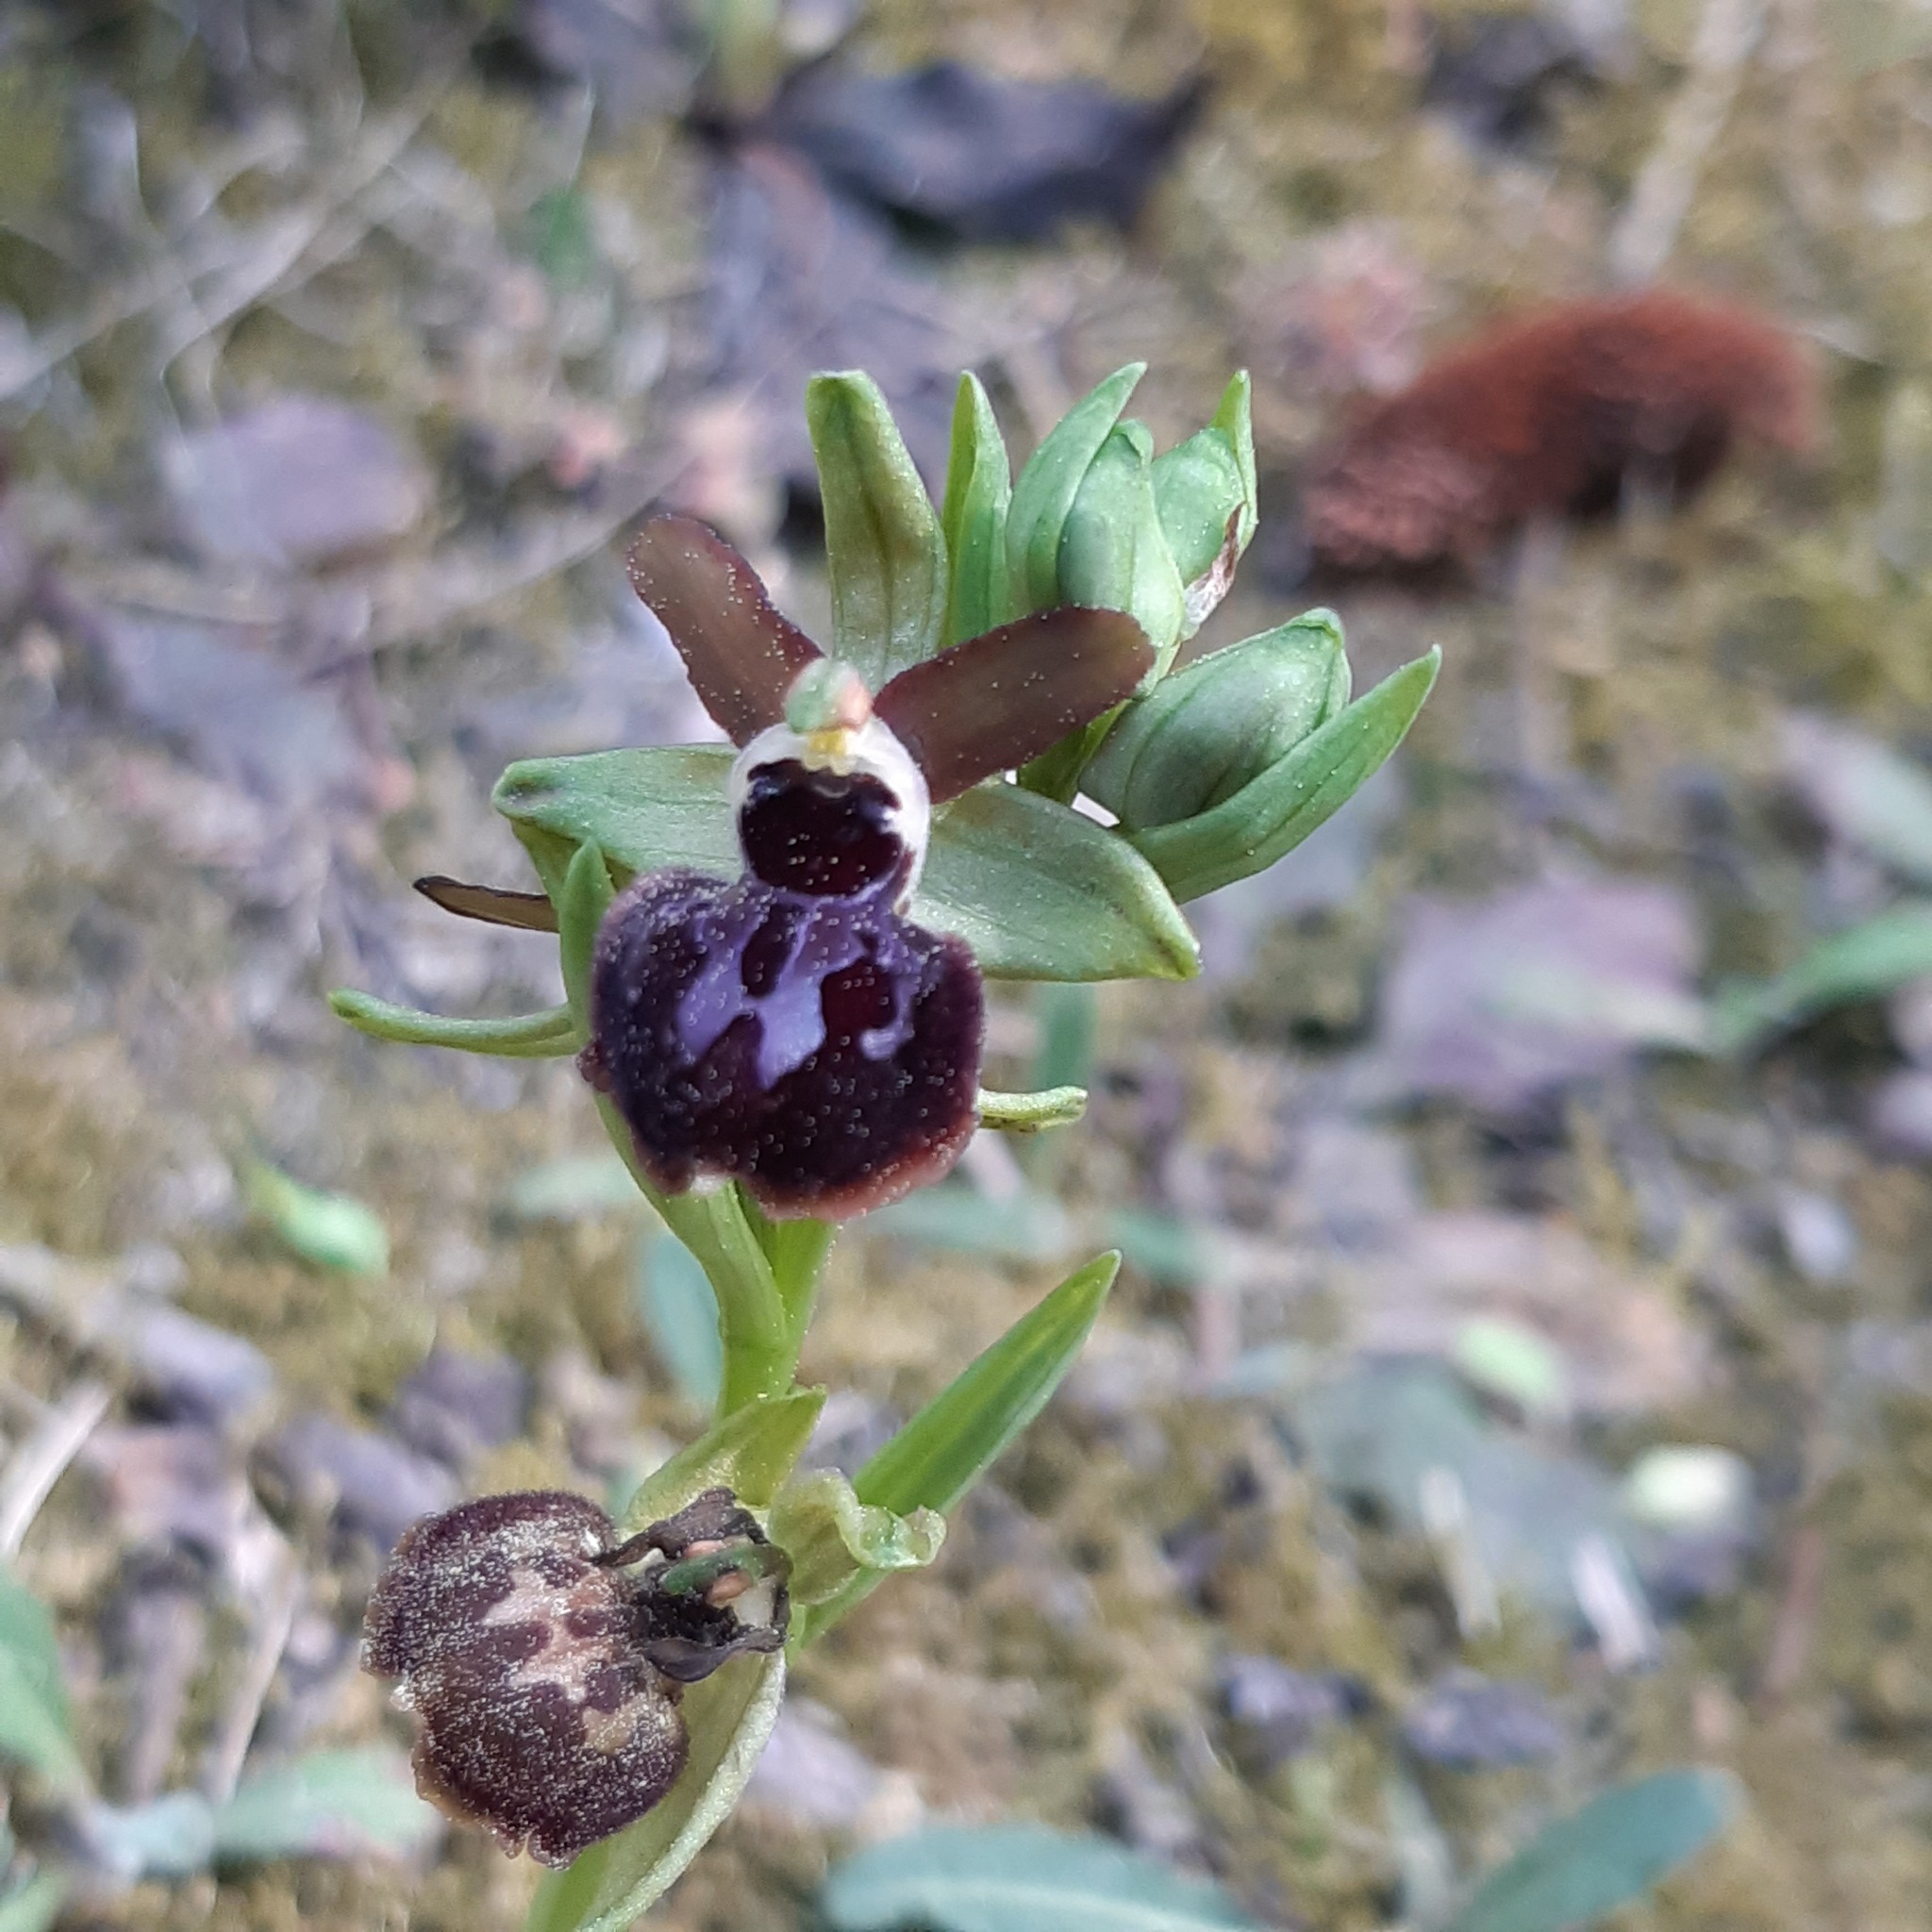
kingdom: Plantae
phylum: Tracheophyta
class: Liliopsida
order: Asparagales
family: Orchidaceae
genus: Ophrys
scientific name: Ophrys sphegodes
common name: Early spider-orchid
